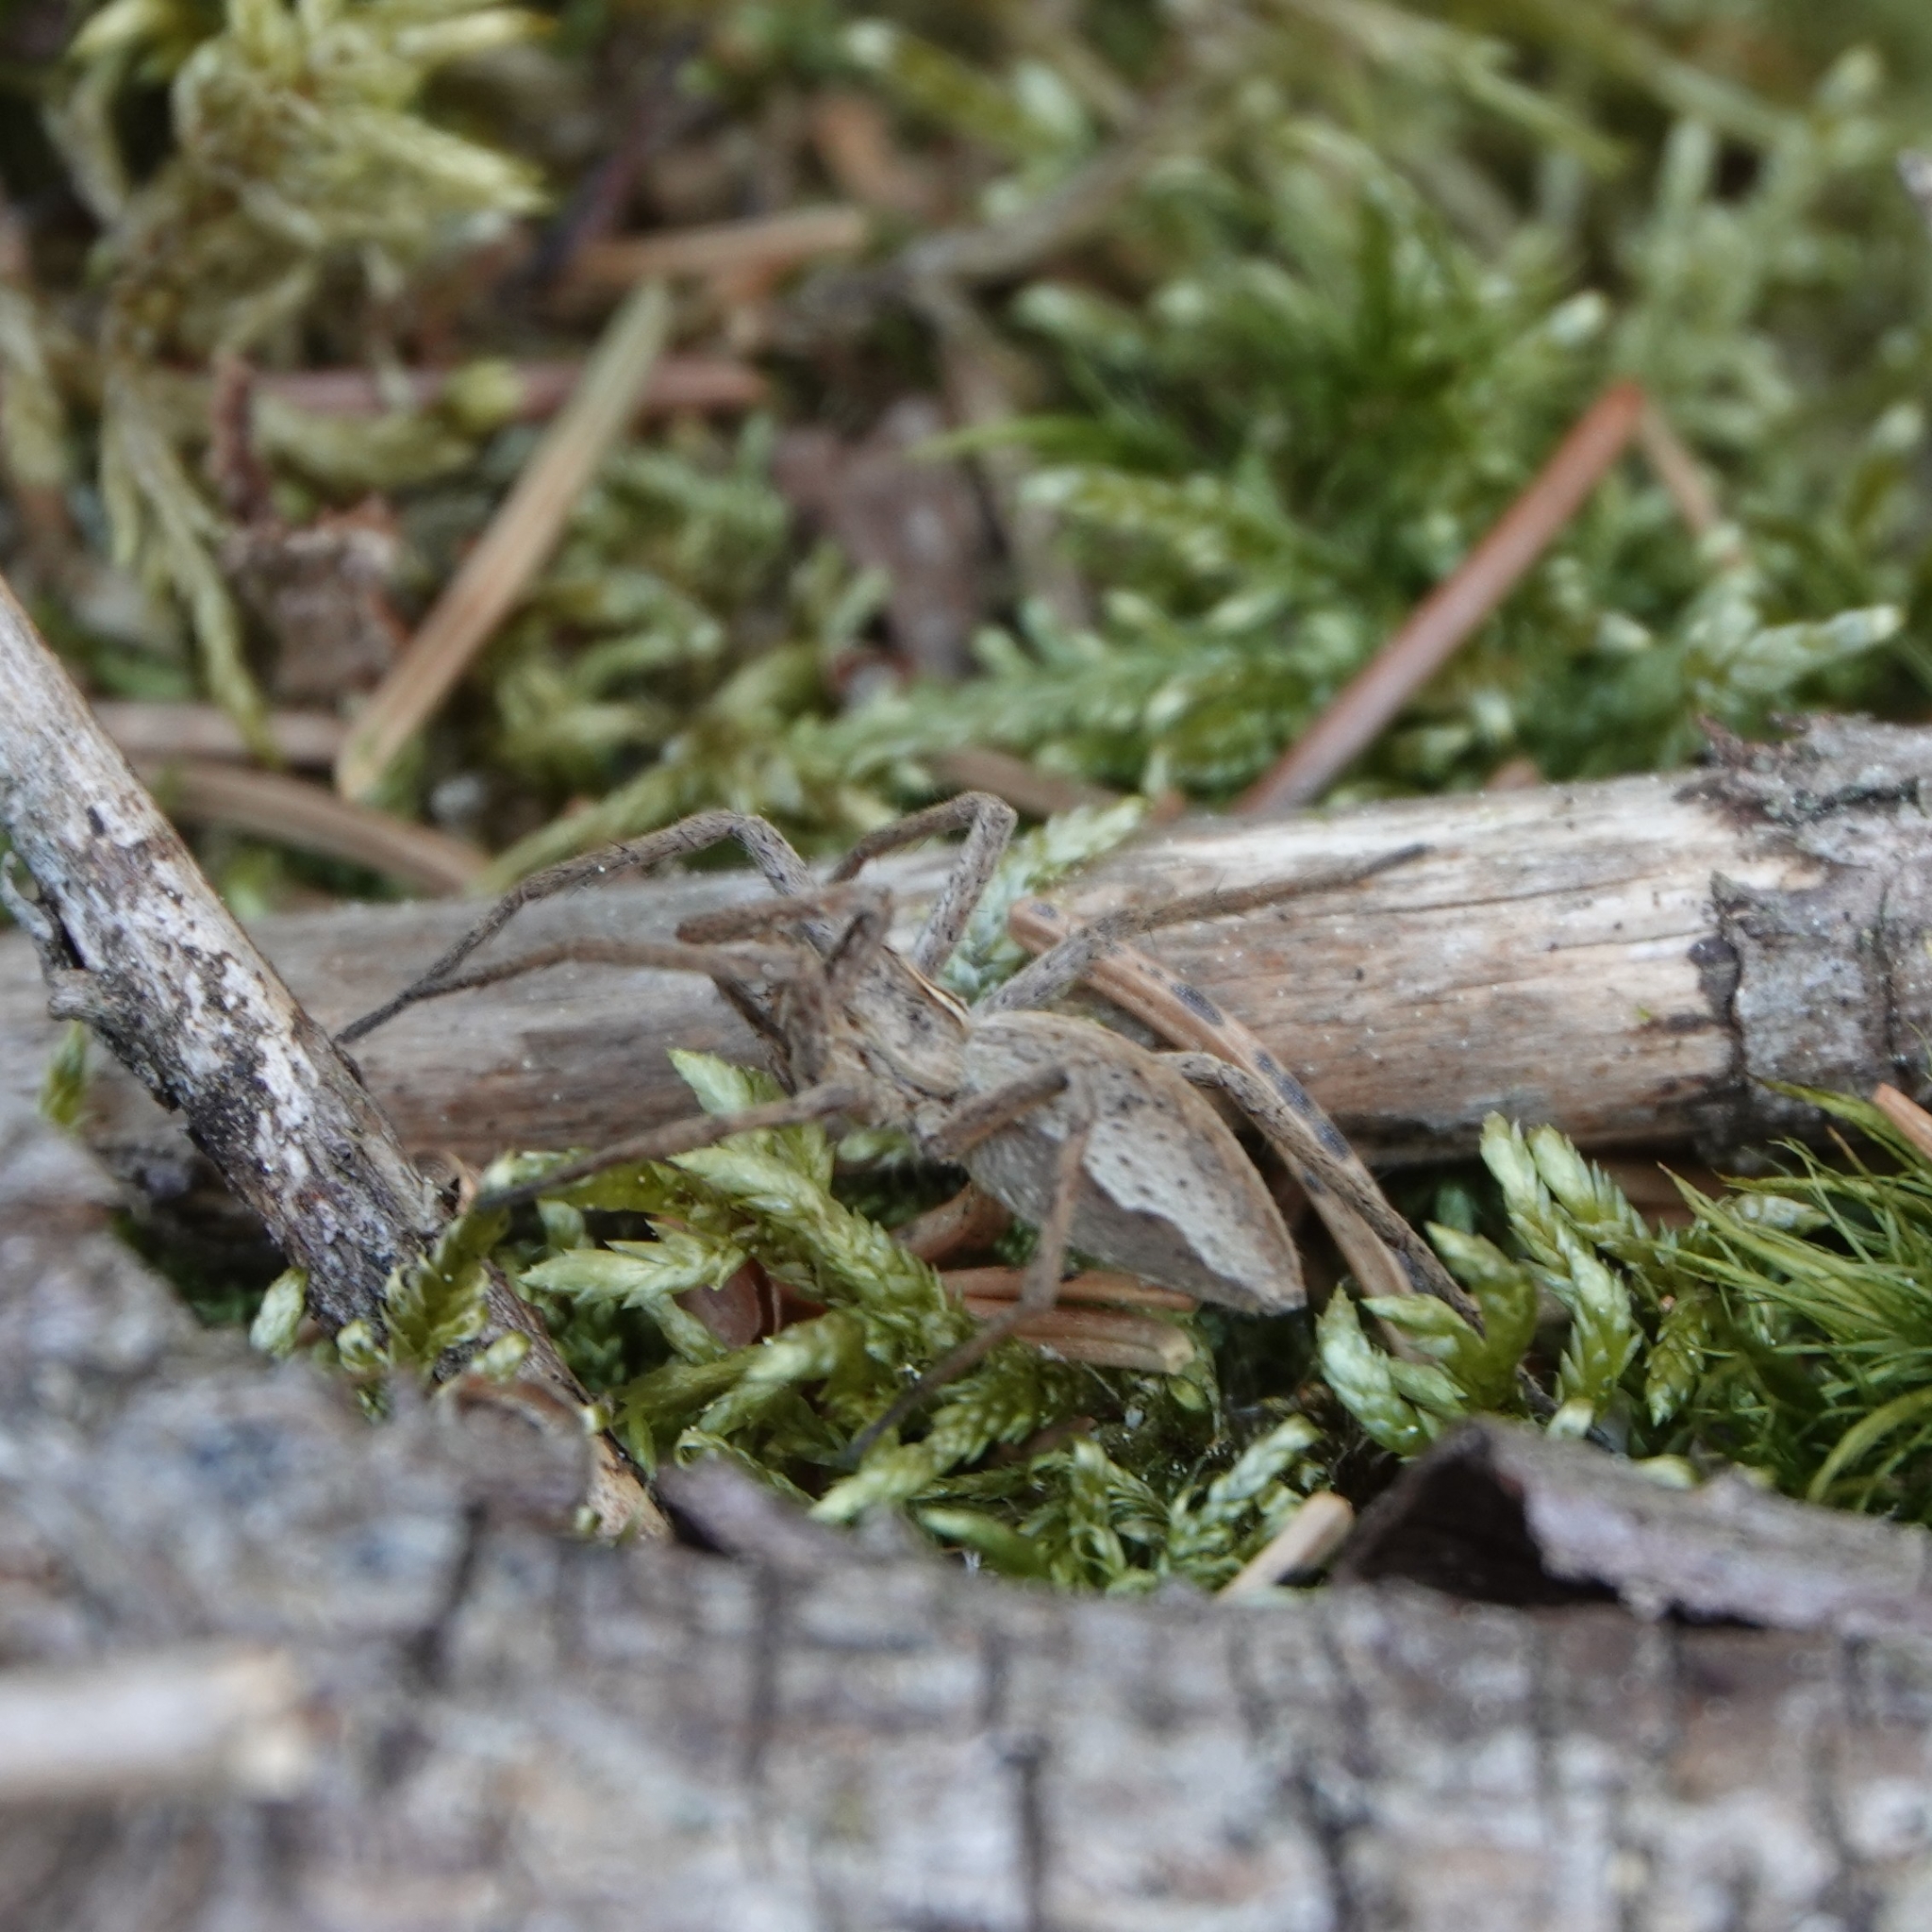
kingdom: Animalia
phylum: Arthropoda
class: Arachnida
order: Araneae
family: Pisauridae
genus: Pisaura
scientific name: Pisaura mirabilis
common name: Tent spider
